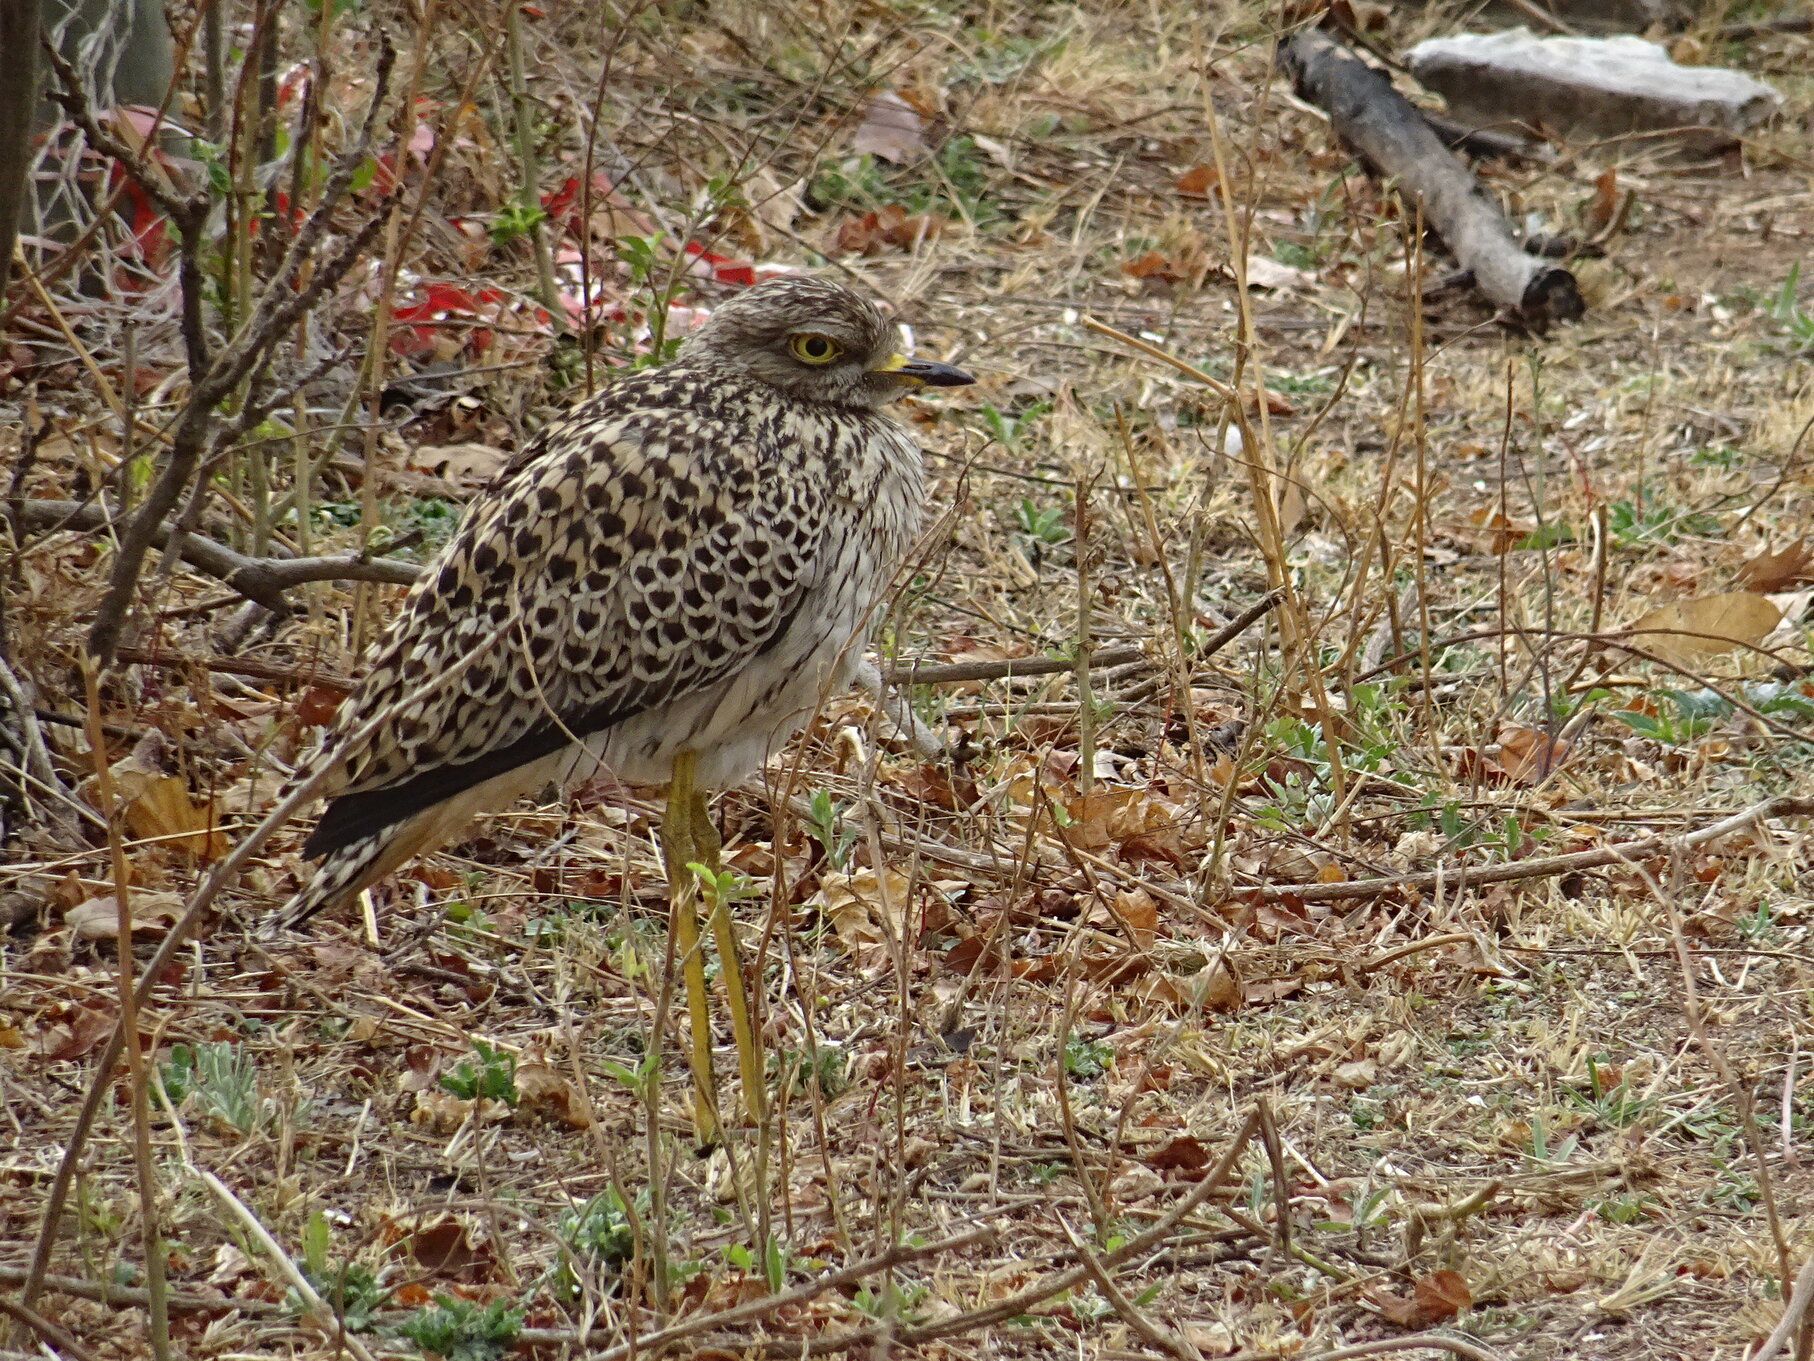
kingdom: Animalia
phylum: Chordata
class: Aves
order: Charadriiformes
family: Burhinidae
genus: Burhinus
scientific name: Burhinus capensis
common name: Spotted thick-knee
